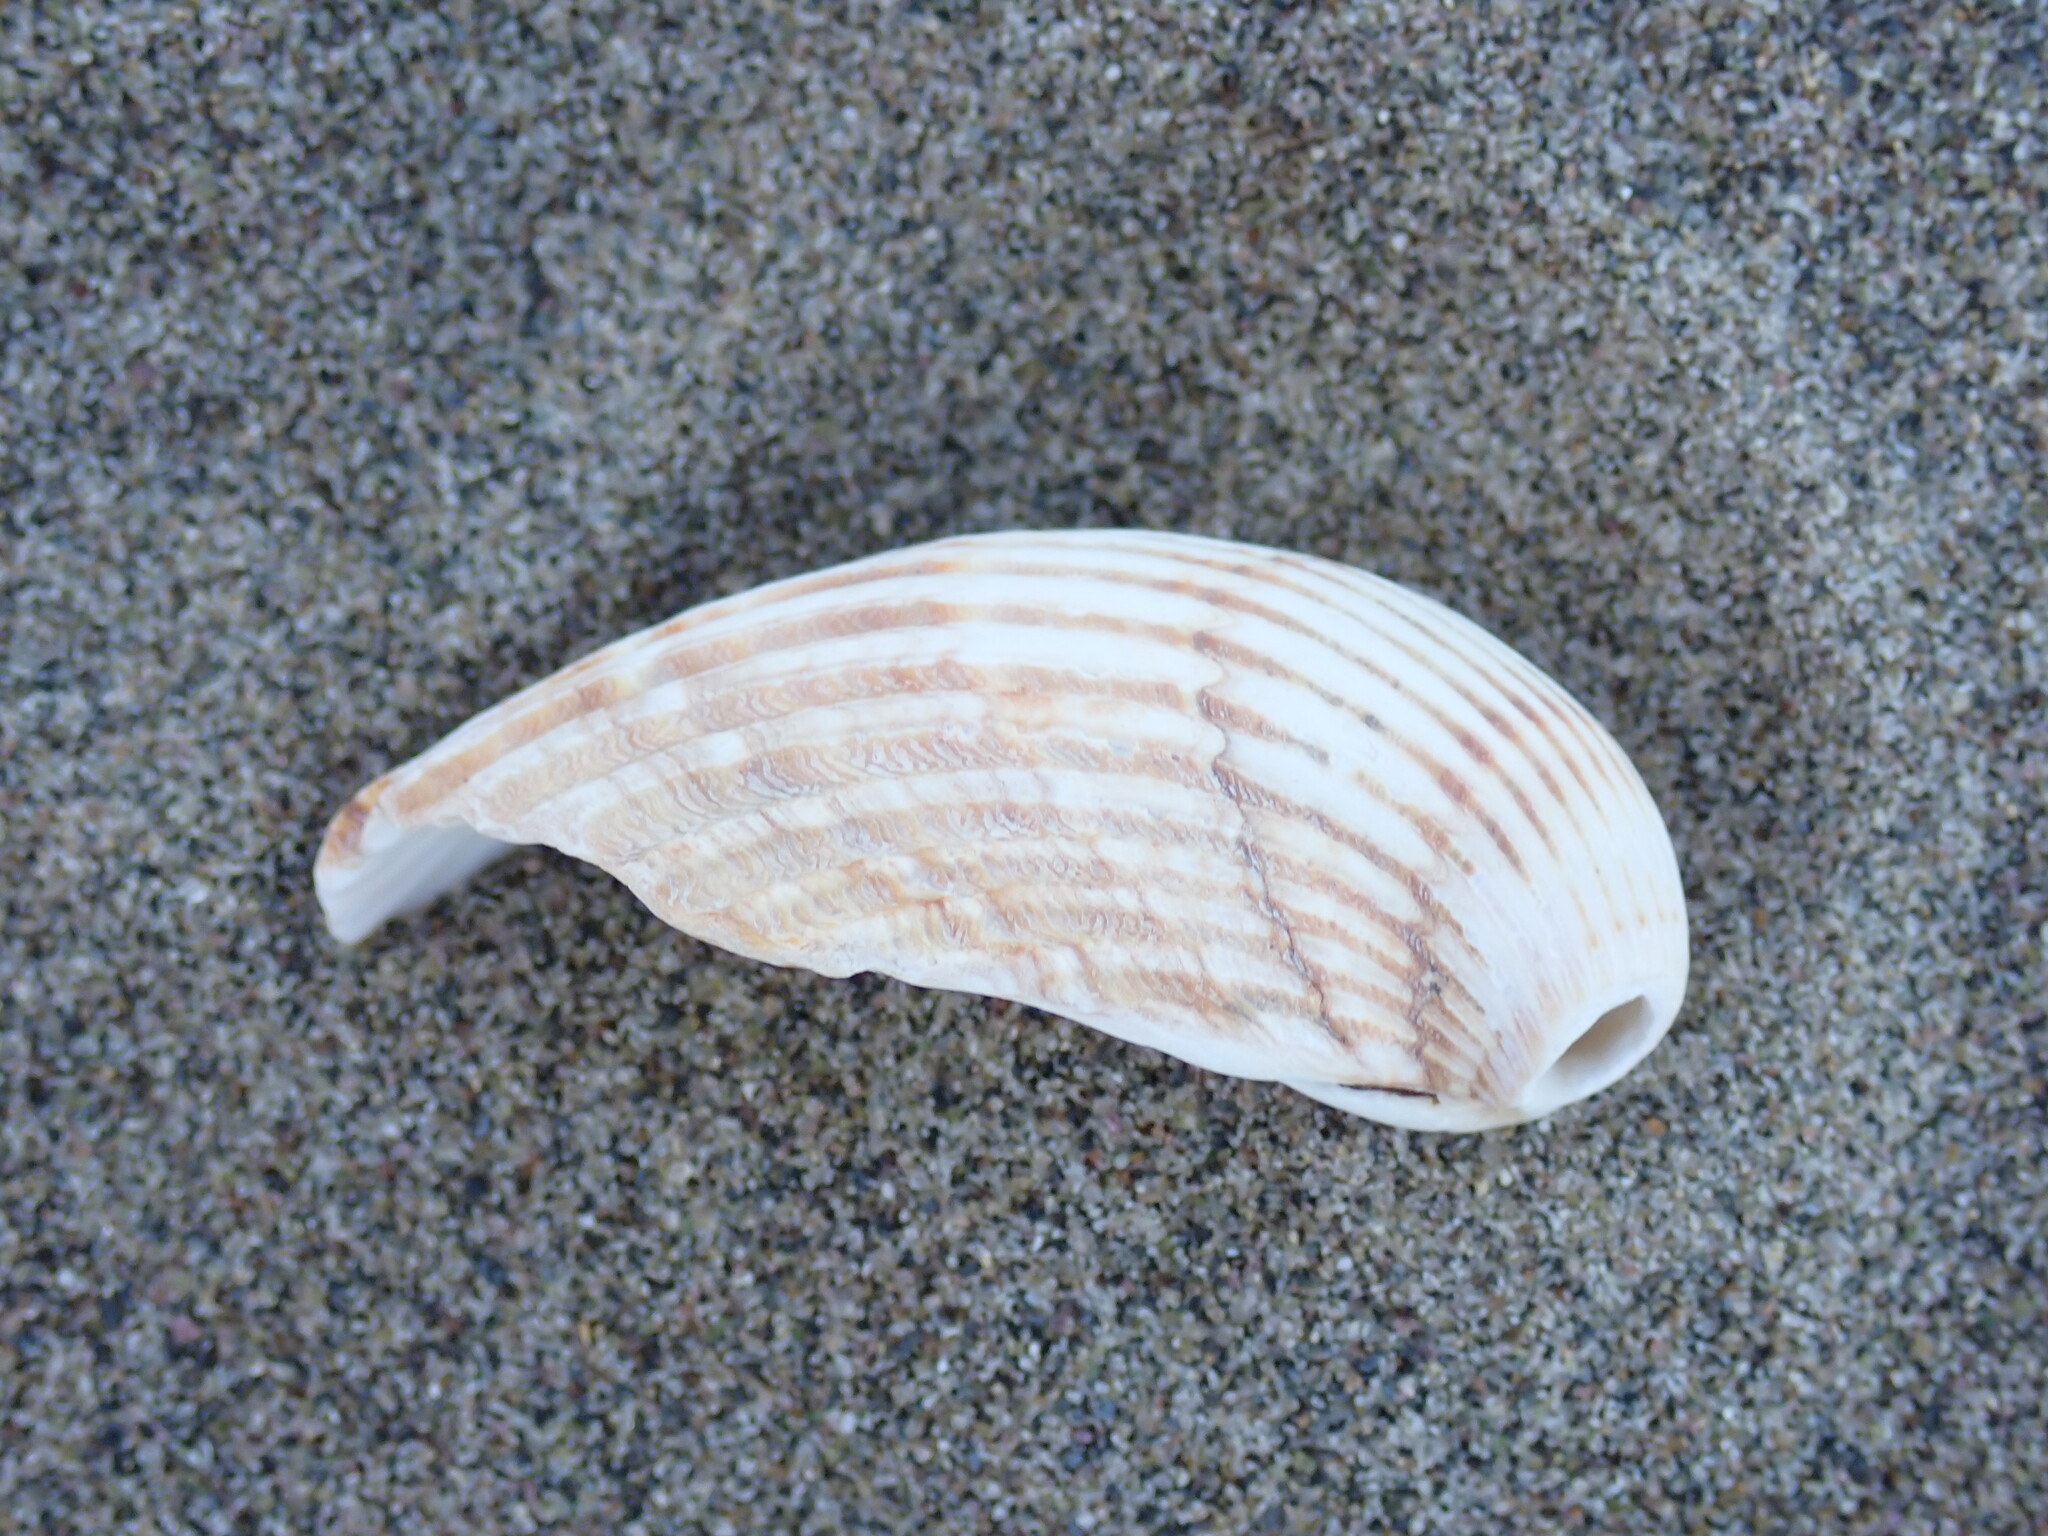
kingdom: Animalia
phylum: Mollusca
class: Bivalvia
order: Cardiida
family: Cardiidae
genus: Acanthocardia
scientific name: Acanthocardia tuberculata
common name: Rough cockle
